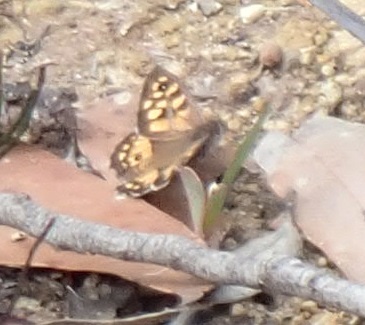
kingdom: Animalia
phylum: Arthropoda
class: Insecta
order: Lepidoptera
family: Nymphalidae
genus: Geitoneura
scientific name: Geitoneura klugii
